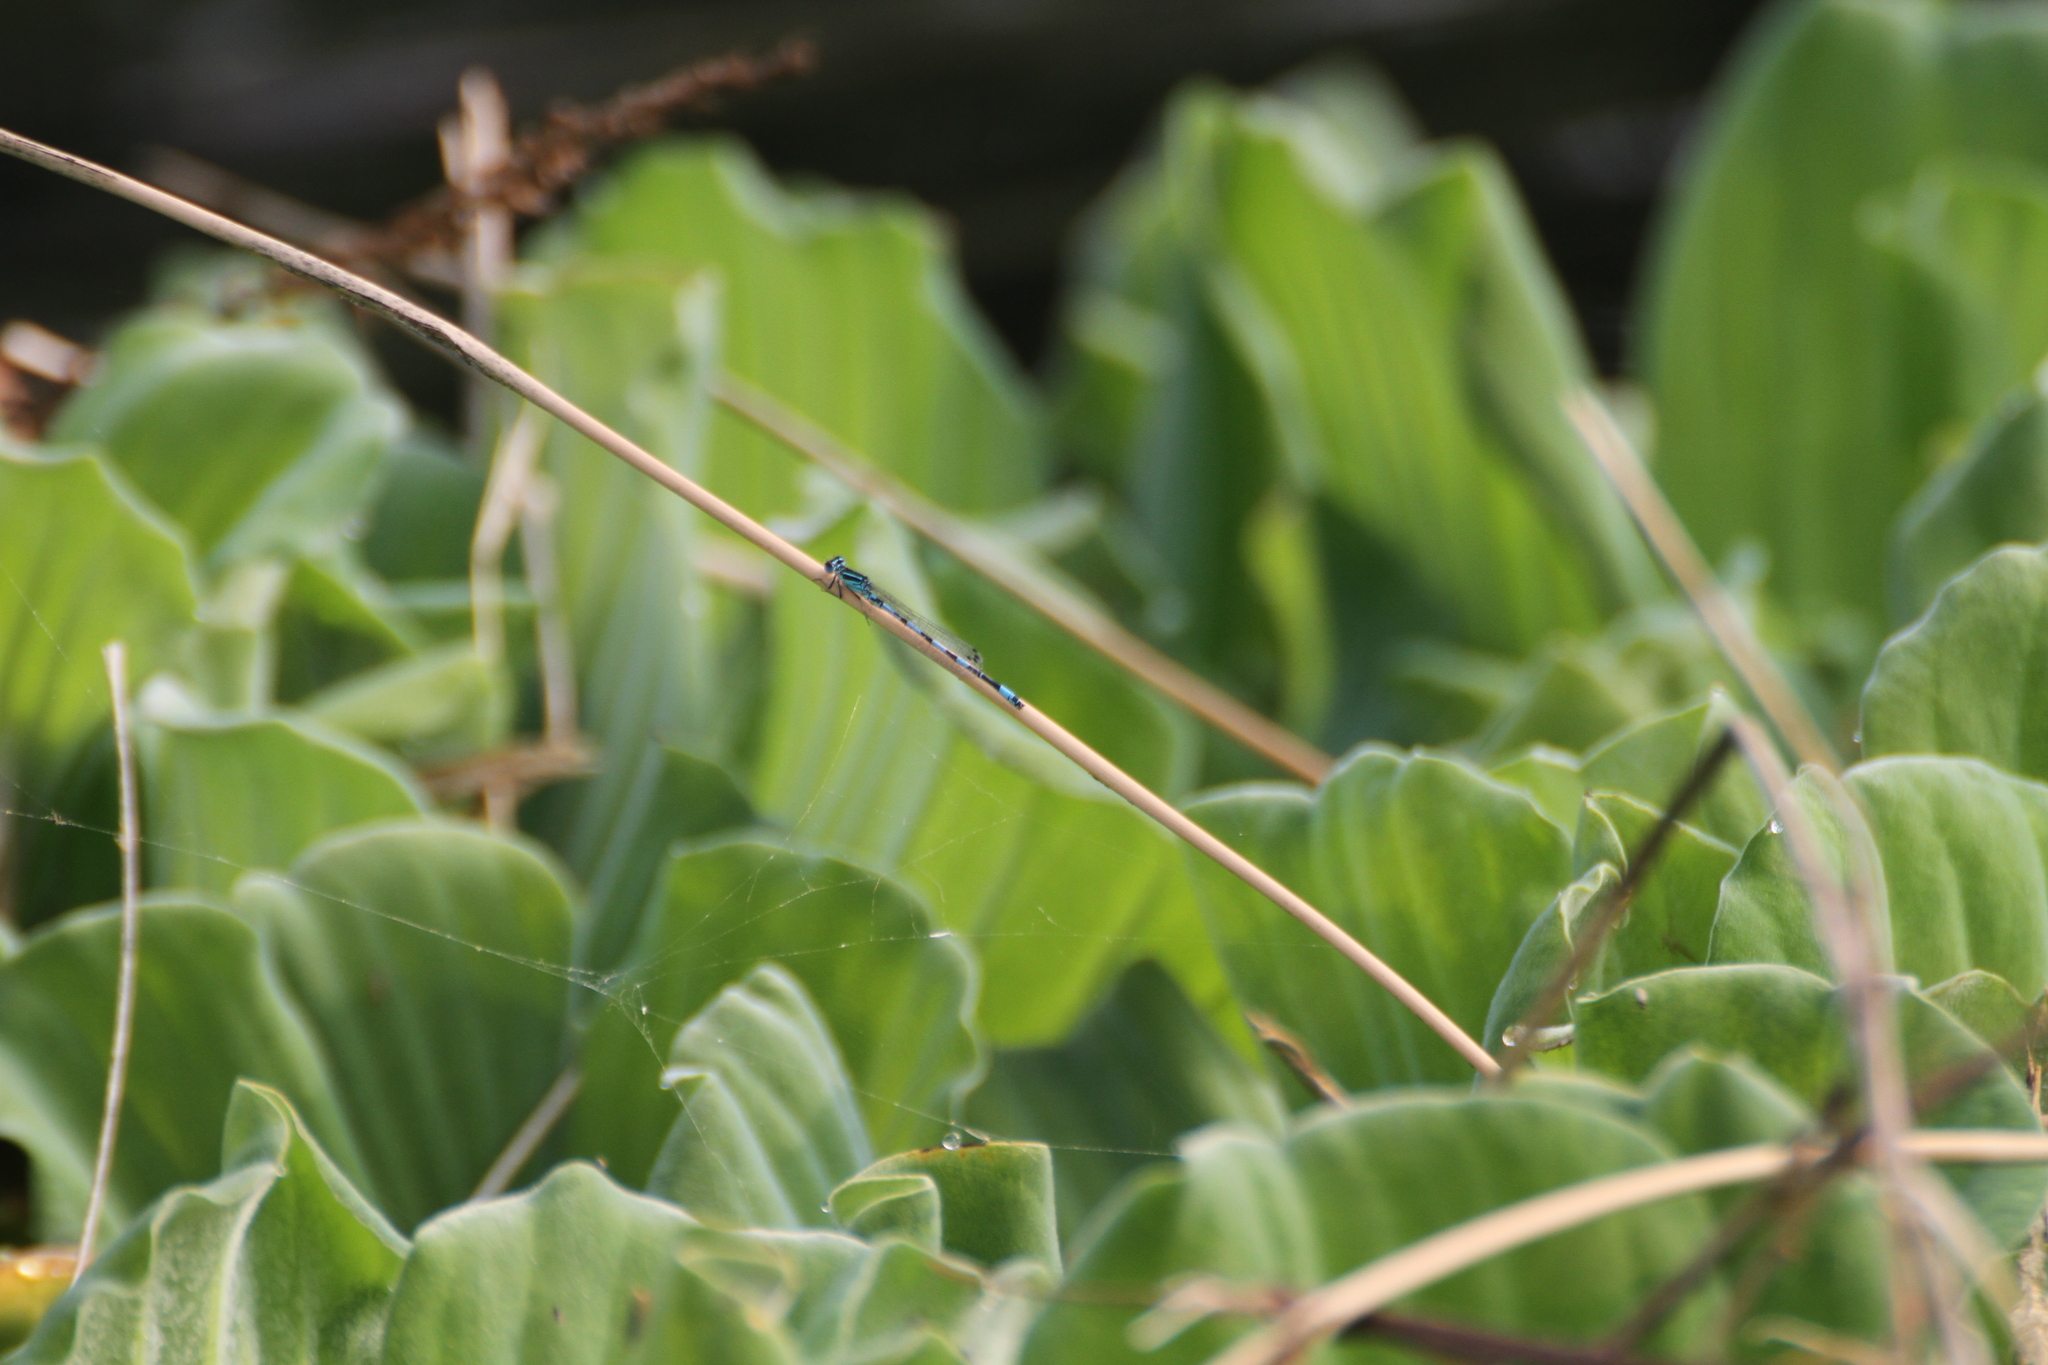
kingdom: Animalia
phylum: Arthropoda
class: Insecta
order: Odonata
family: Coenagrionidae
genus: Coenagrion
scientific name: Coenagrion mercuriale
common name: Southern damselfly
